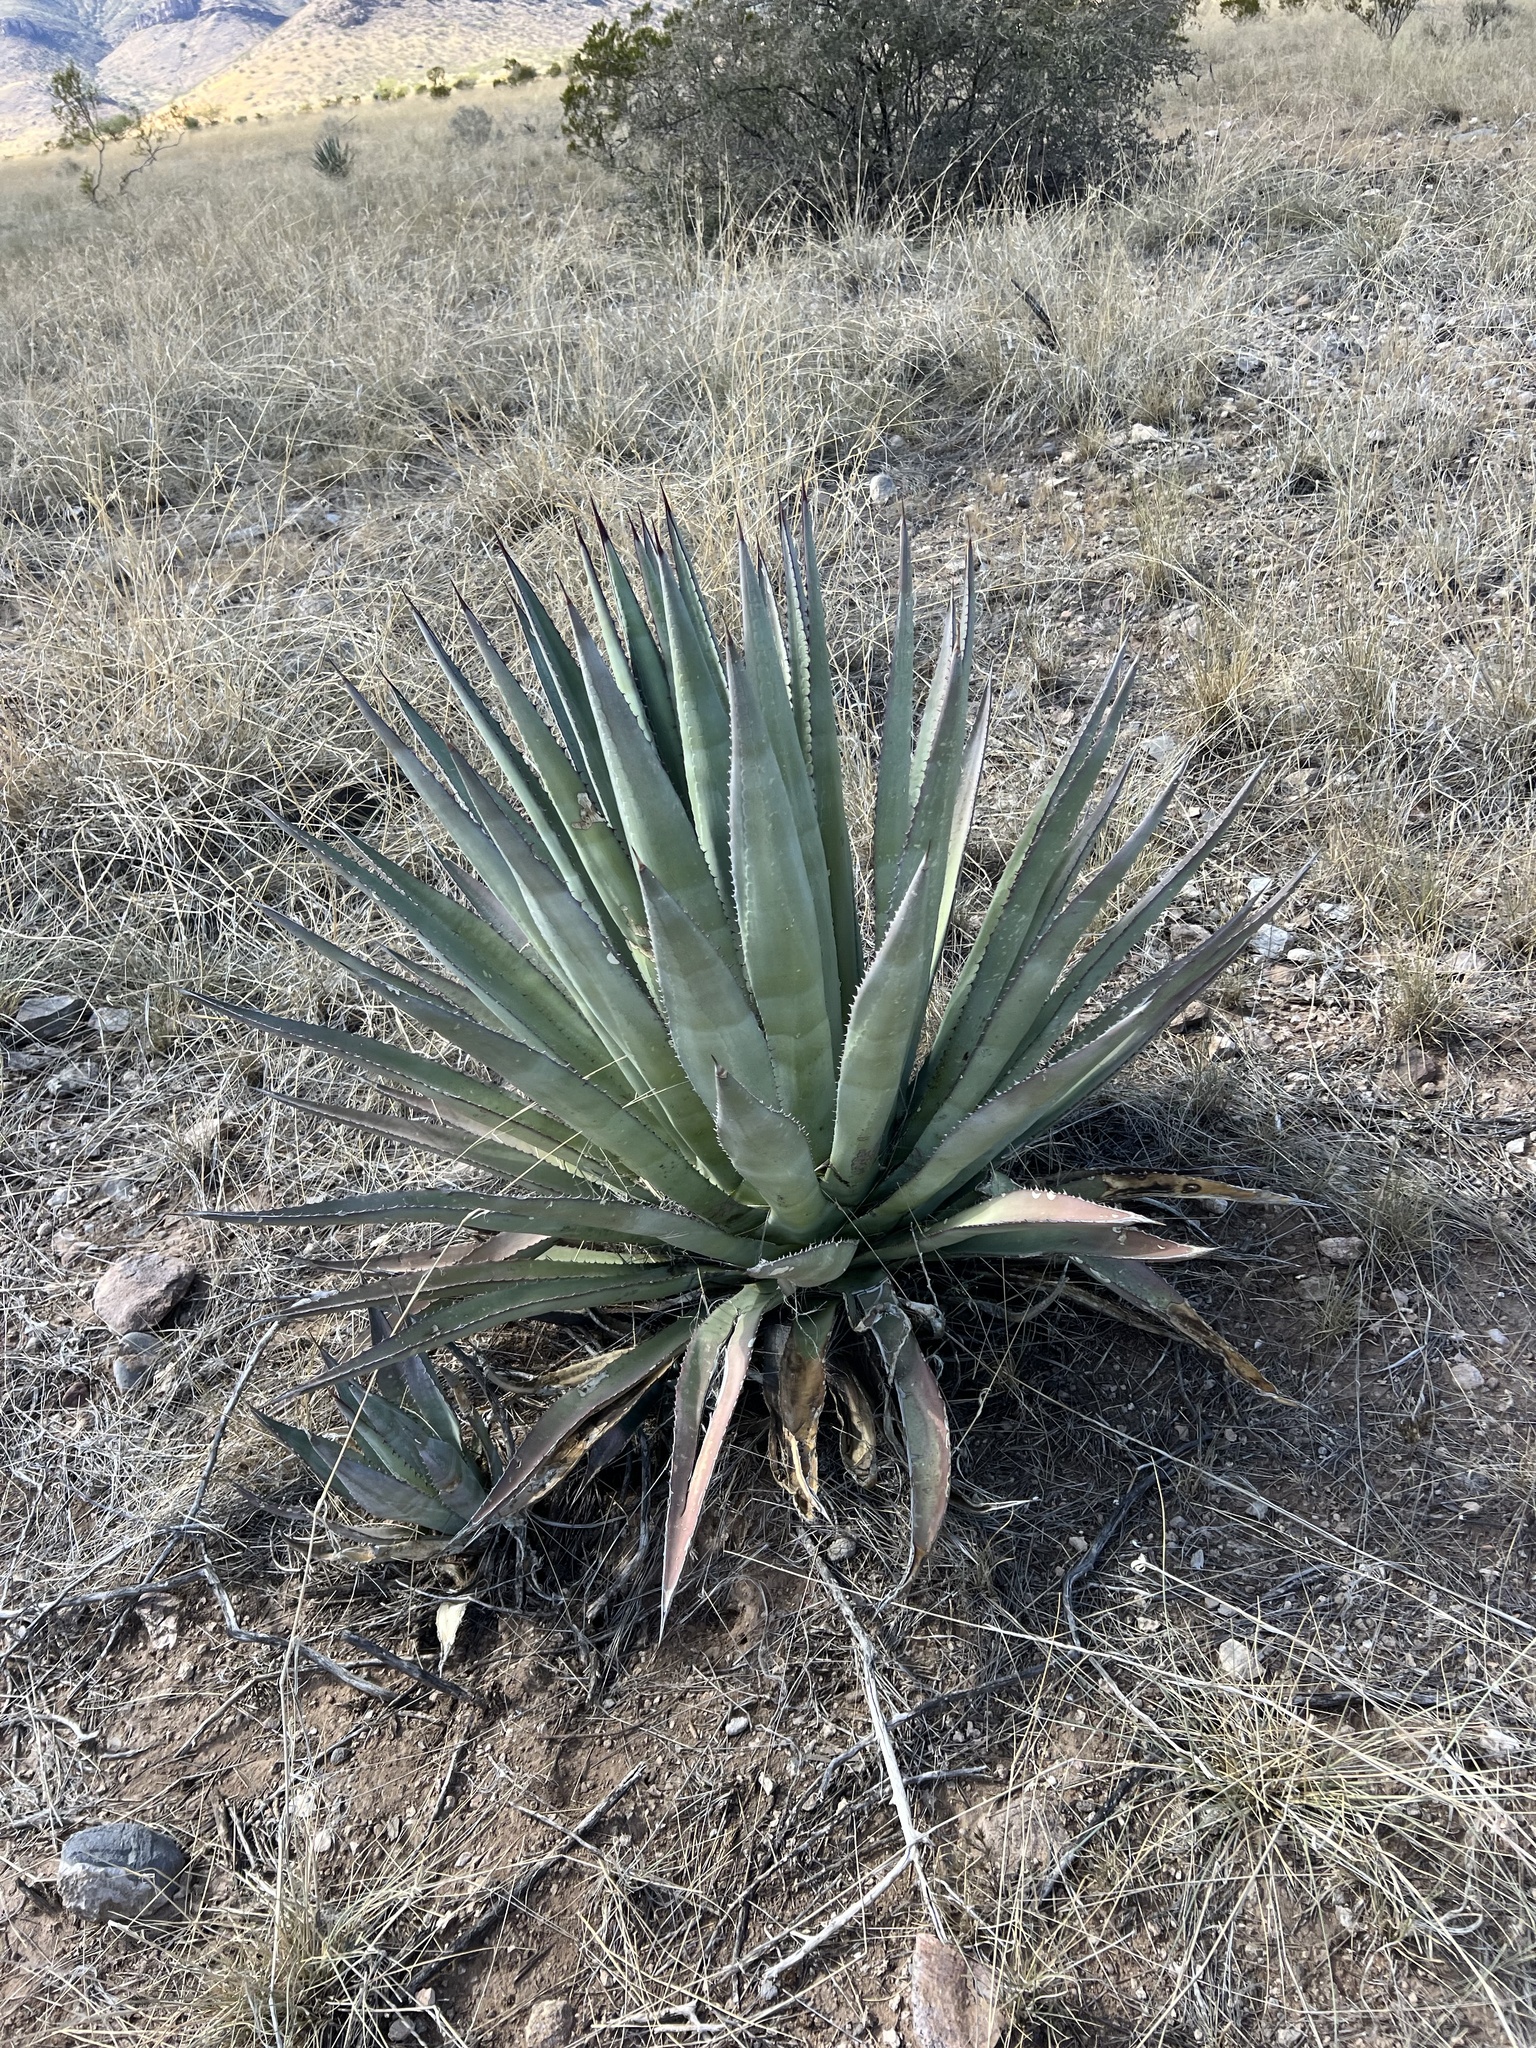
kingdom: Plantae
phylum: Tracheophyta
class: Liliopsida
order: Asparagales
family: Asparagaceae
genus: Agave
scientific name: Agave palmeri
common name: Palmer agave
